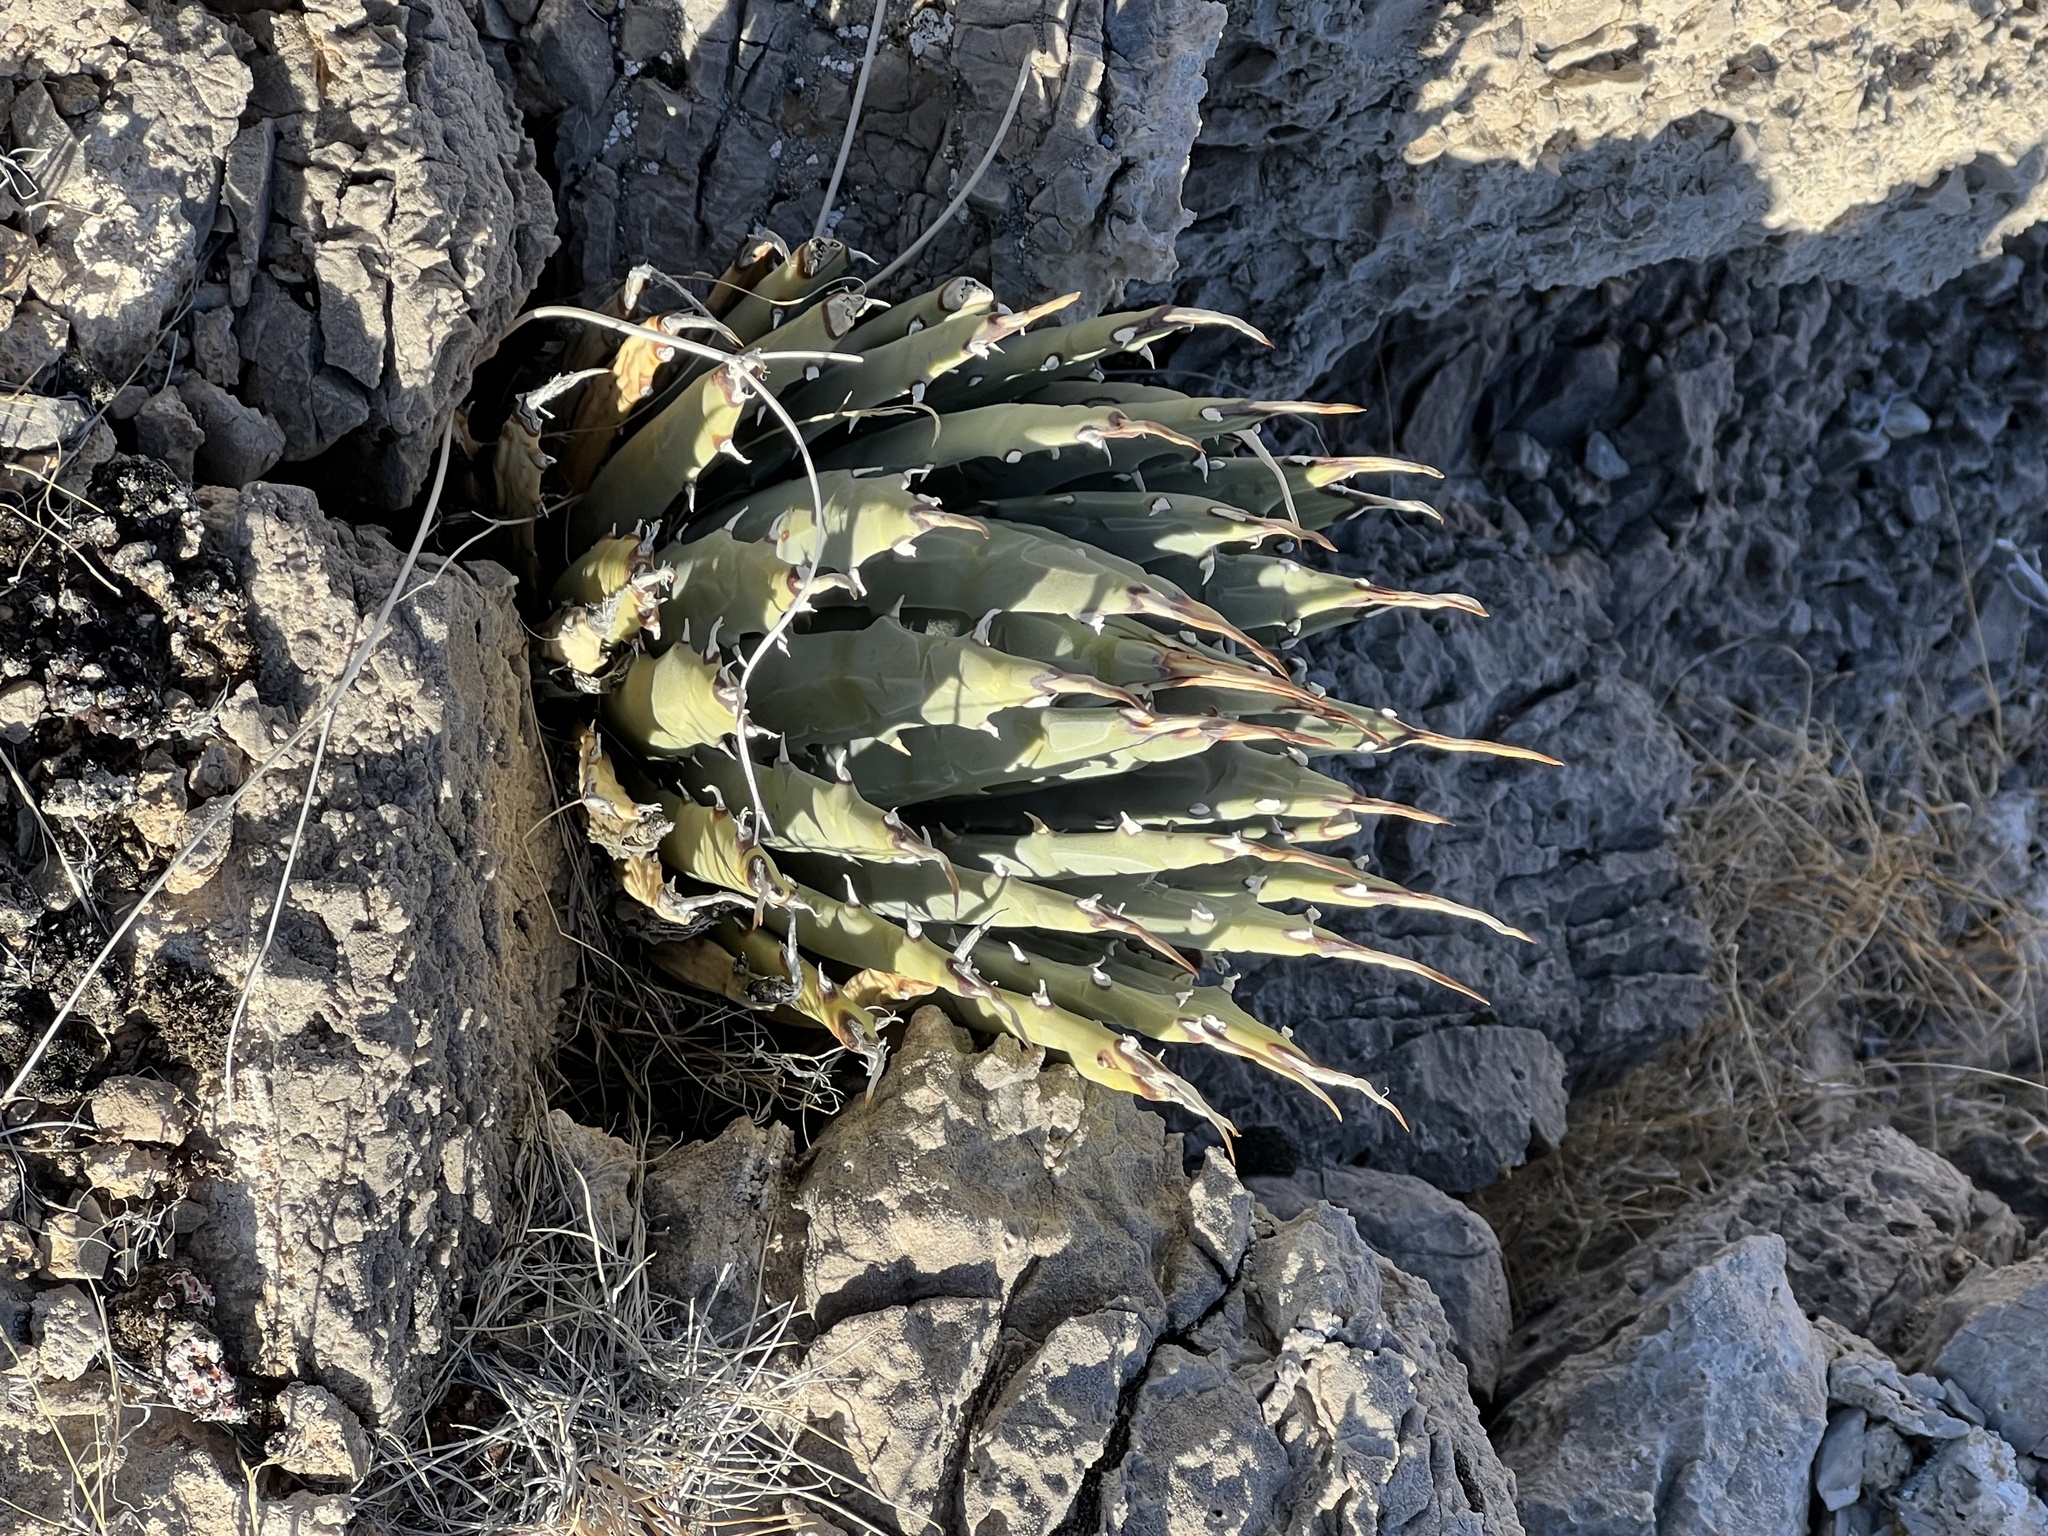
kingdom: Plantae
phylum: Tracheophyta
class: Liliopsida
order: Asparagales
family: Asparagaceae
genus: Agave
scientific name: Agave utahensis
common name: Utah agave
